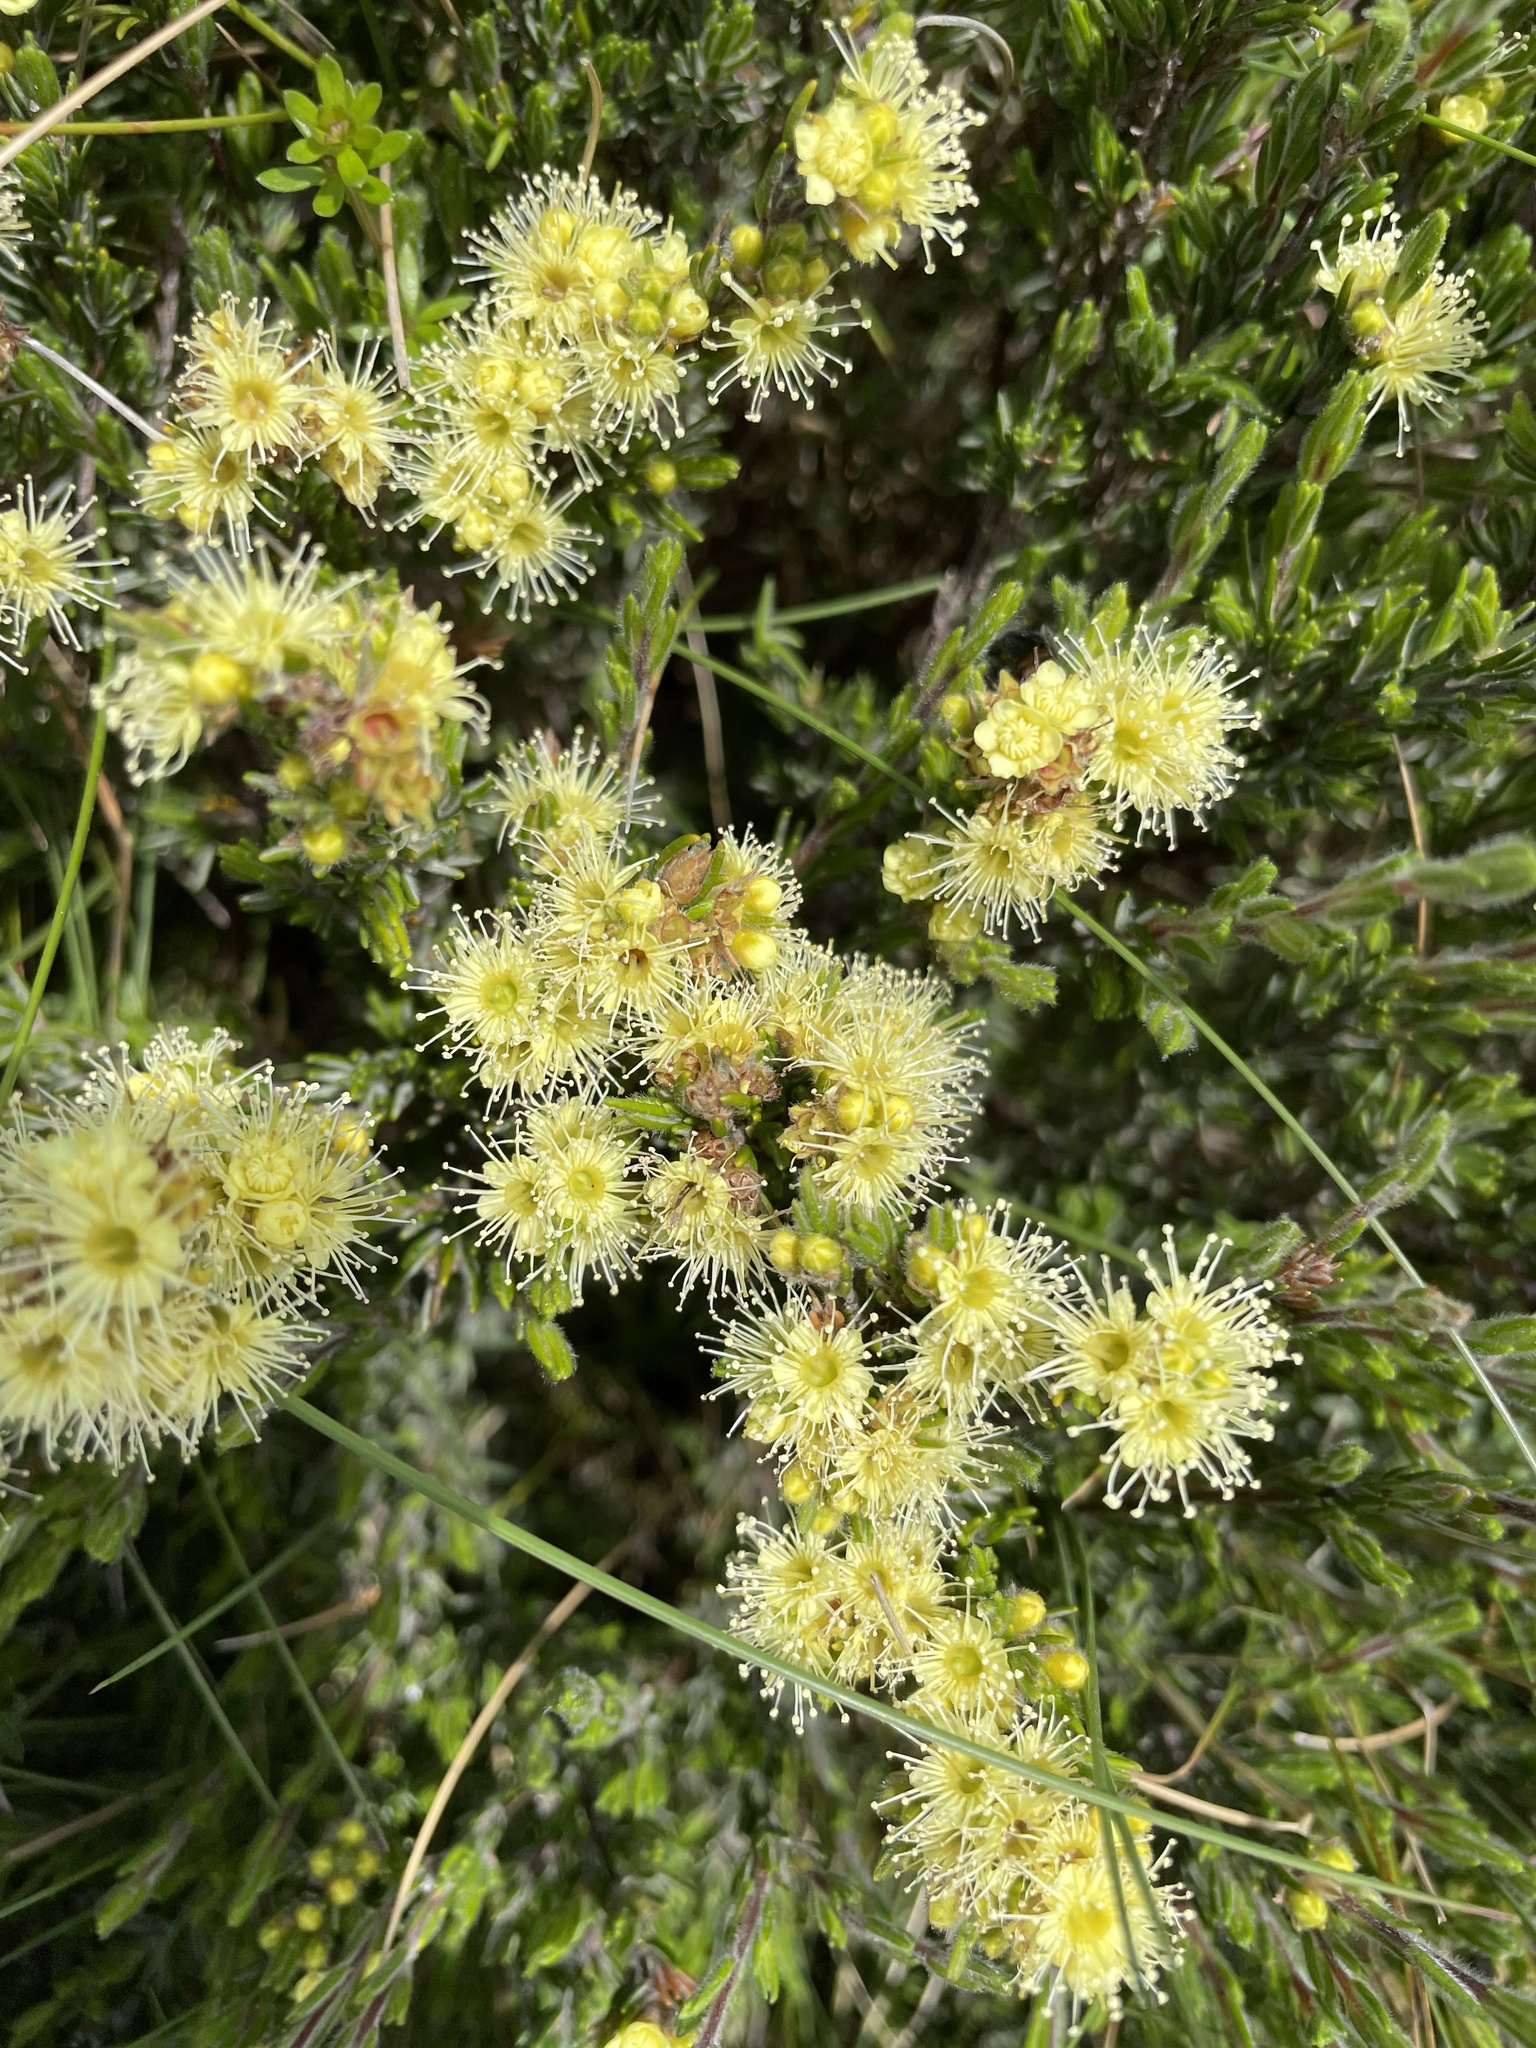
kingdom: Plantae
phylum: Tracheophyta
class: Magnoliopsida
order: Myrtales
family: Myrtaceae
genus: Kunzea
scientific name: Kunzea muelleri
